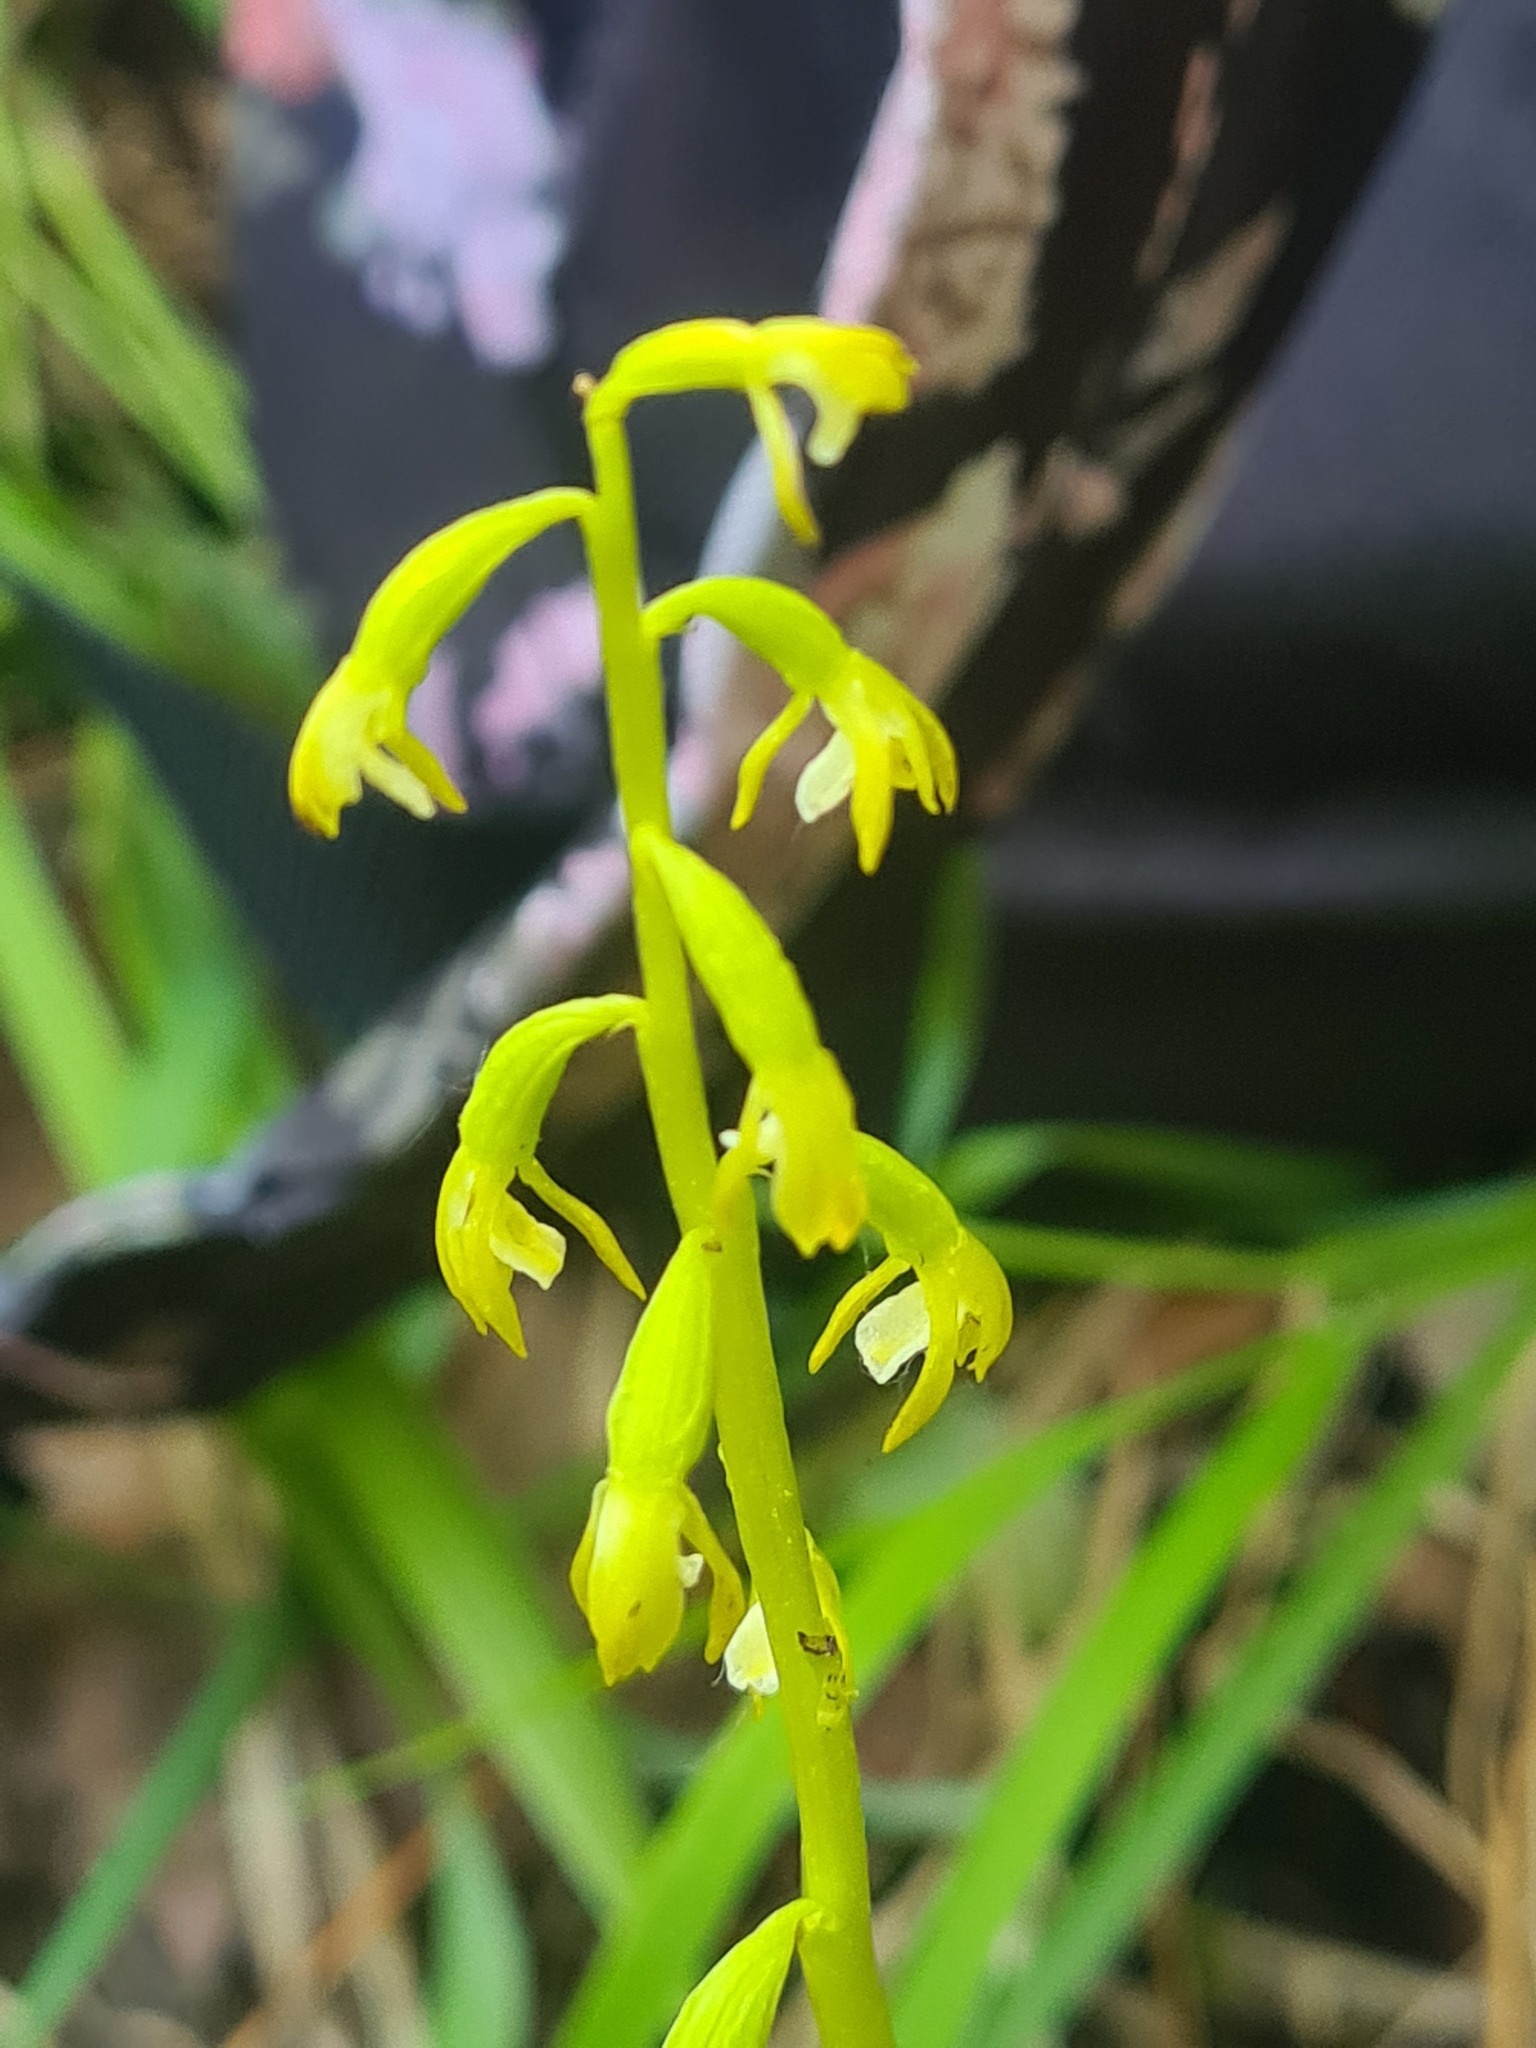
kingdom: Plantae
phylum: Tracheophyta
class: Liliopsida
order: Asparagales
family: Orchidaceae
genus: Corallorhiza
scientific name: Corallorhiza trifida
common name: Yellow coralroot
